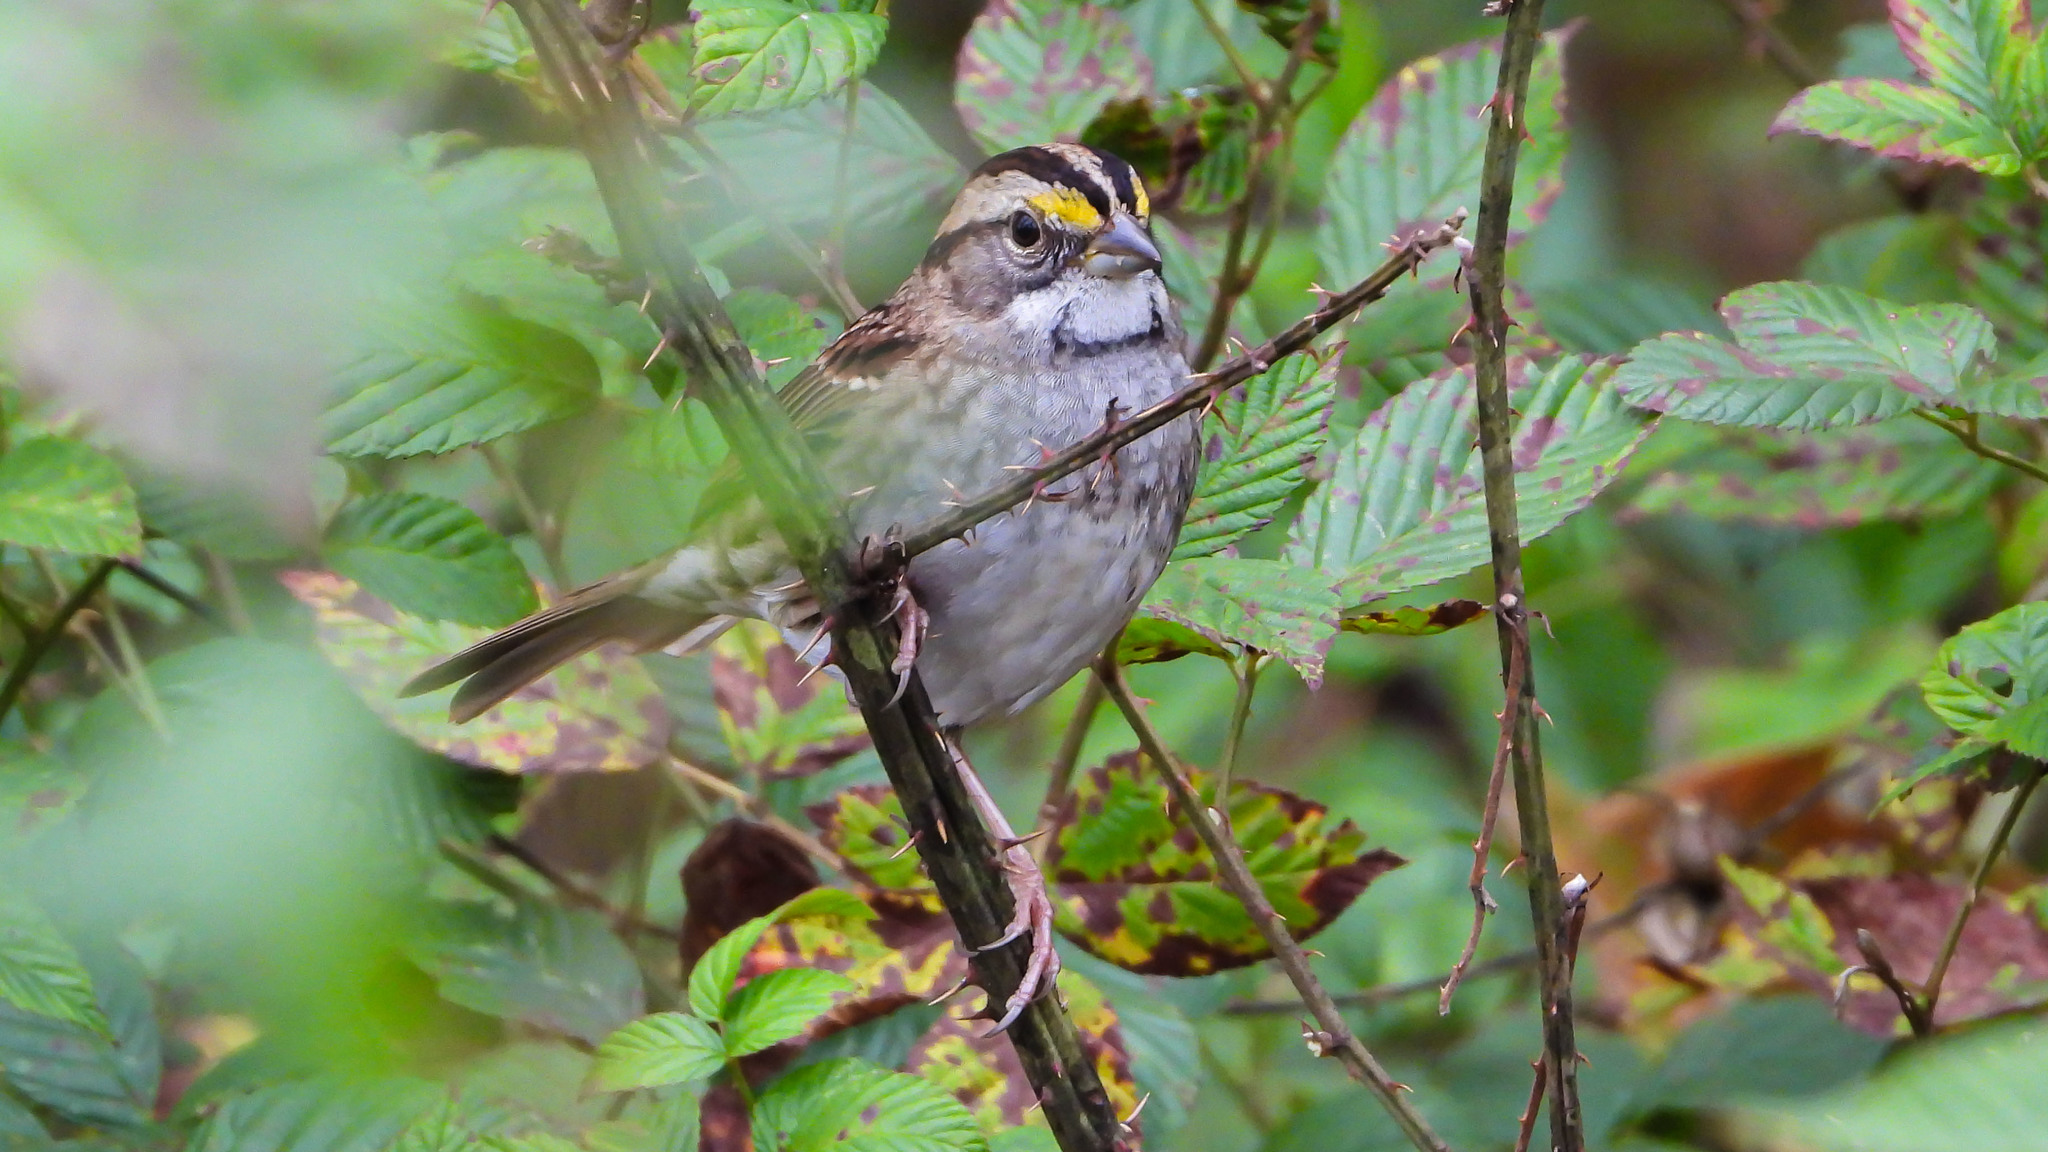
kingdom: Animalia
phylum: Chordata
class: Aves
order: Passeriformes
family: Passerellidae
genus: Zonotrichia
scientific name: Zonotrichia albicollis
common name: White-throated sparrow
